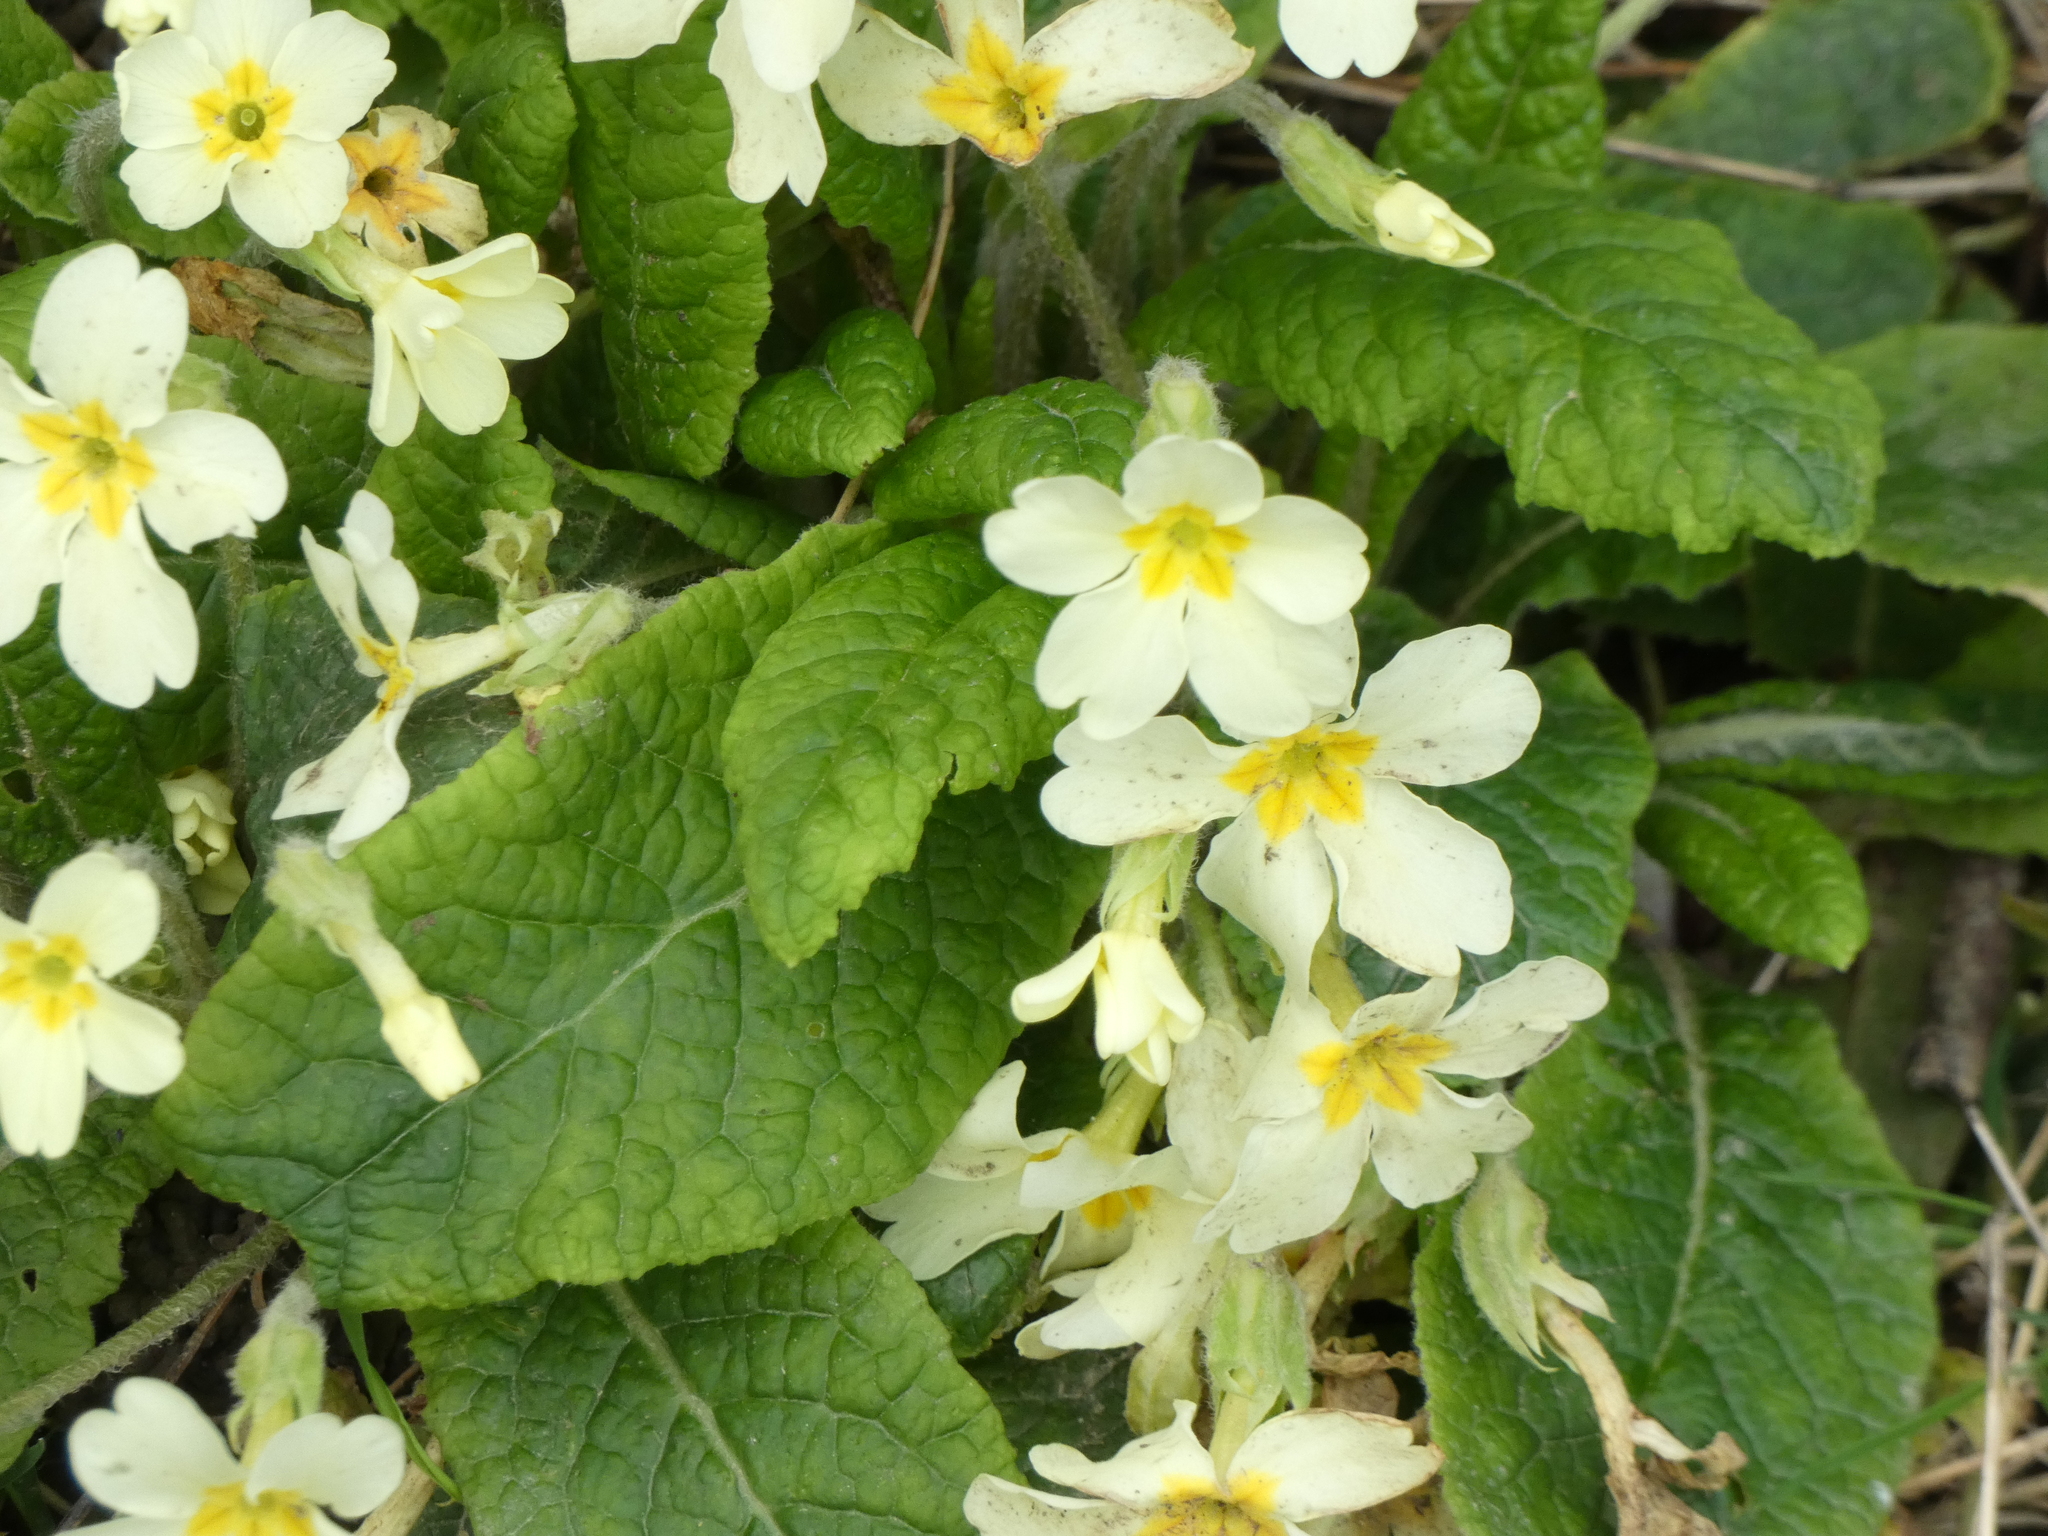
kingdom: Plantae
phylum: Tracheophyta
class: Magnoliopsida
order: Ericales
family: Primulaceae
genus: Primula
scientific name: Primula vulgaris
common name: Primrose
